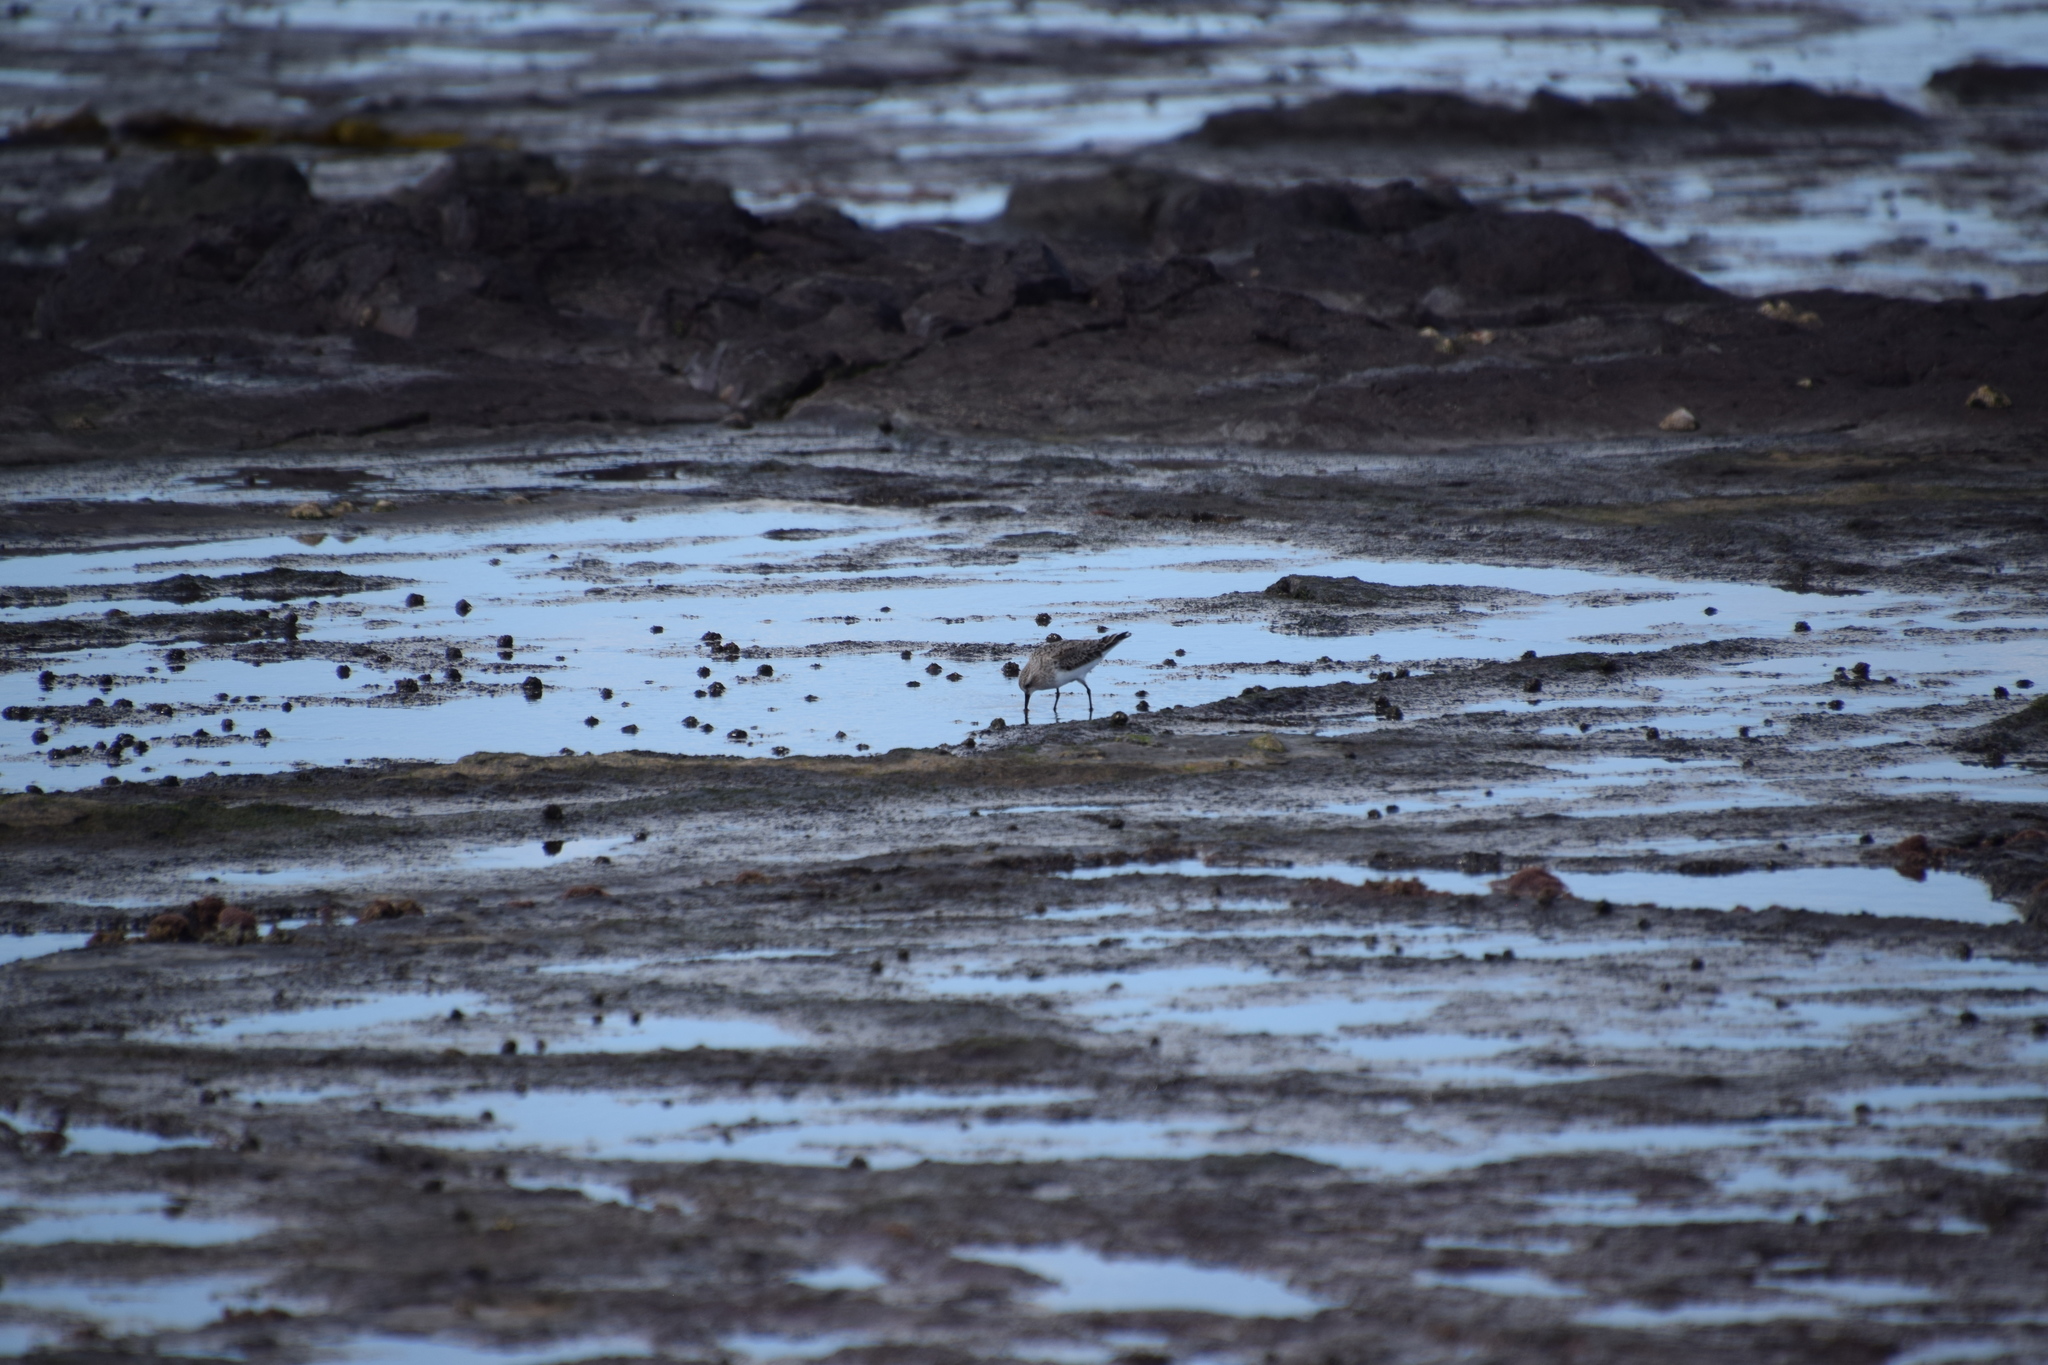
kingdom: Animalia
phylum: Chordata
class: Aves
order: Charadriiformes
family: Scolopacidae
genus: Calidris
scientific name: Calidris ruficollis
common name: Red-necked stint
